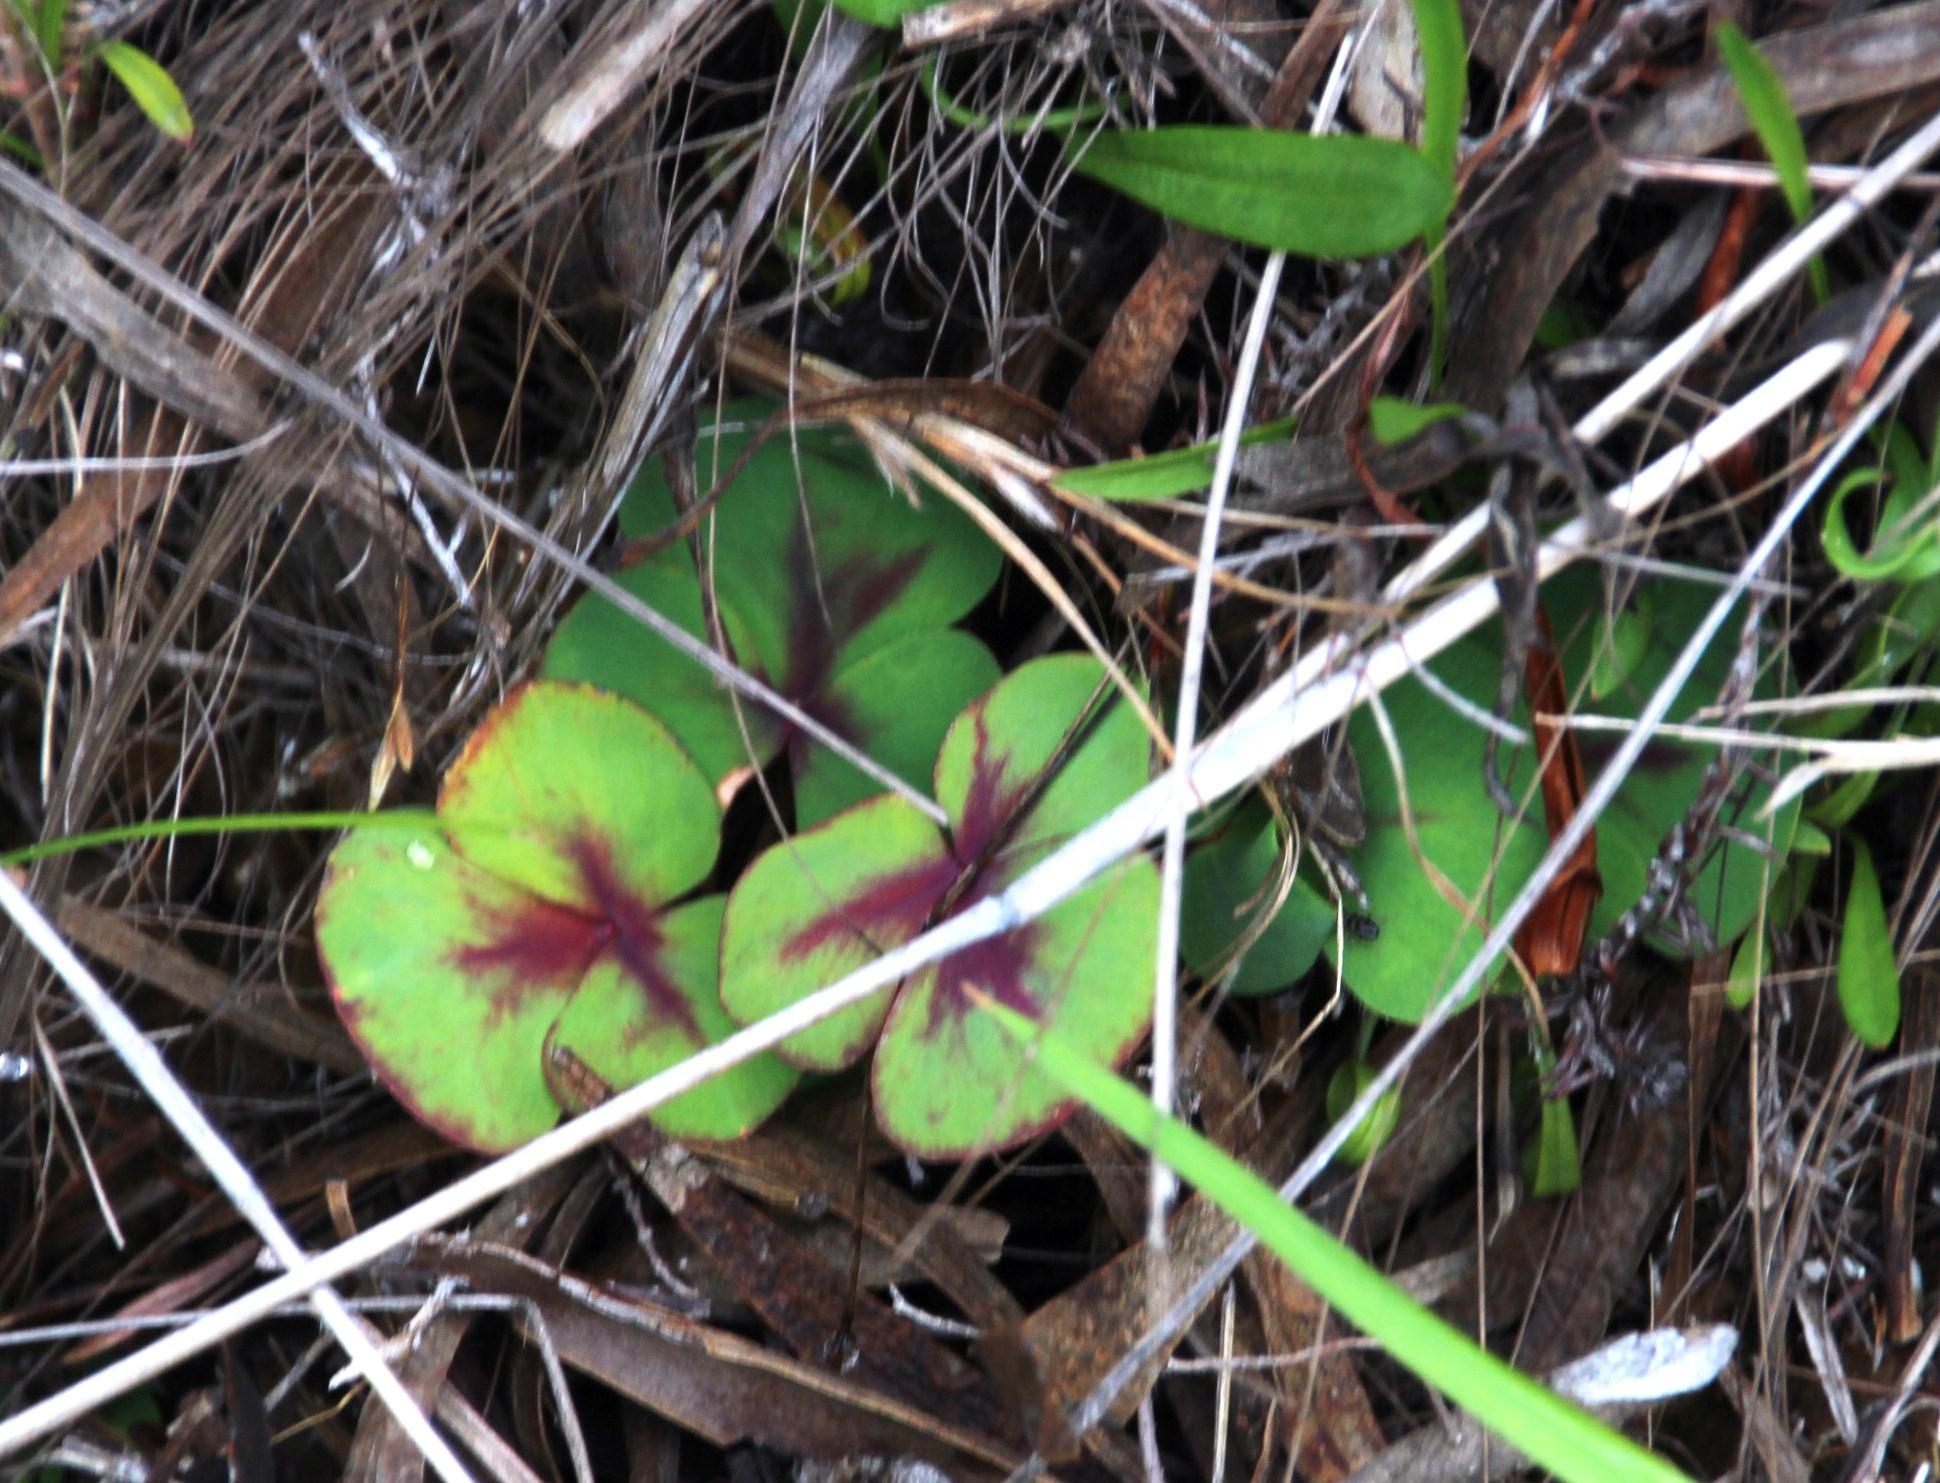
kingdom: Plantae
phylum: Tracheophyta
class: Magnoliopsida
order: Oxalidales
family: Oxalidaceae
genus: Oxalis
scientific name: Oxalis purpurea
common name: Purple woodsorrel
